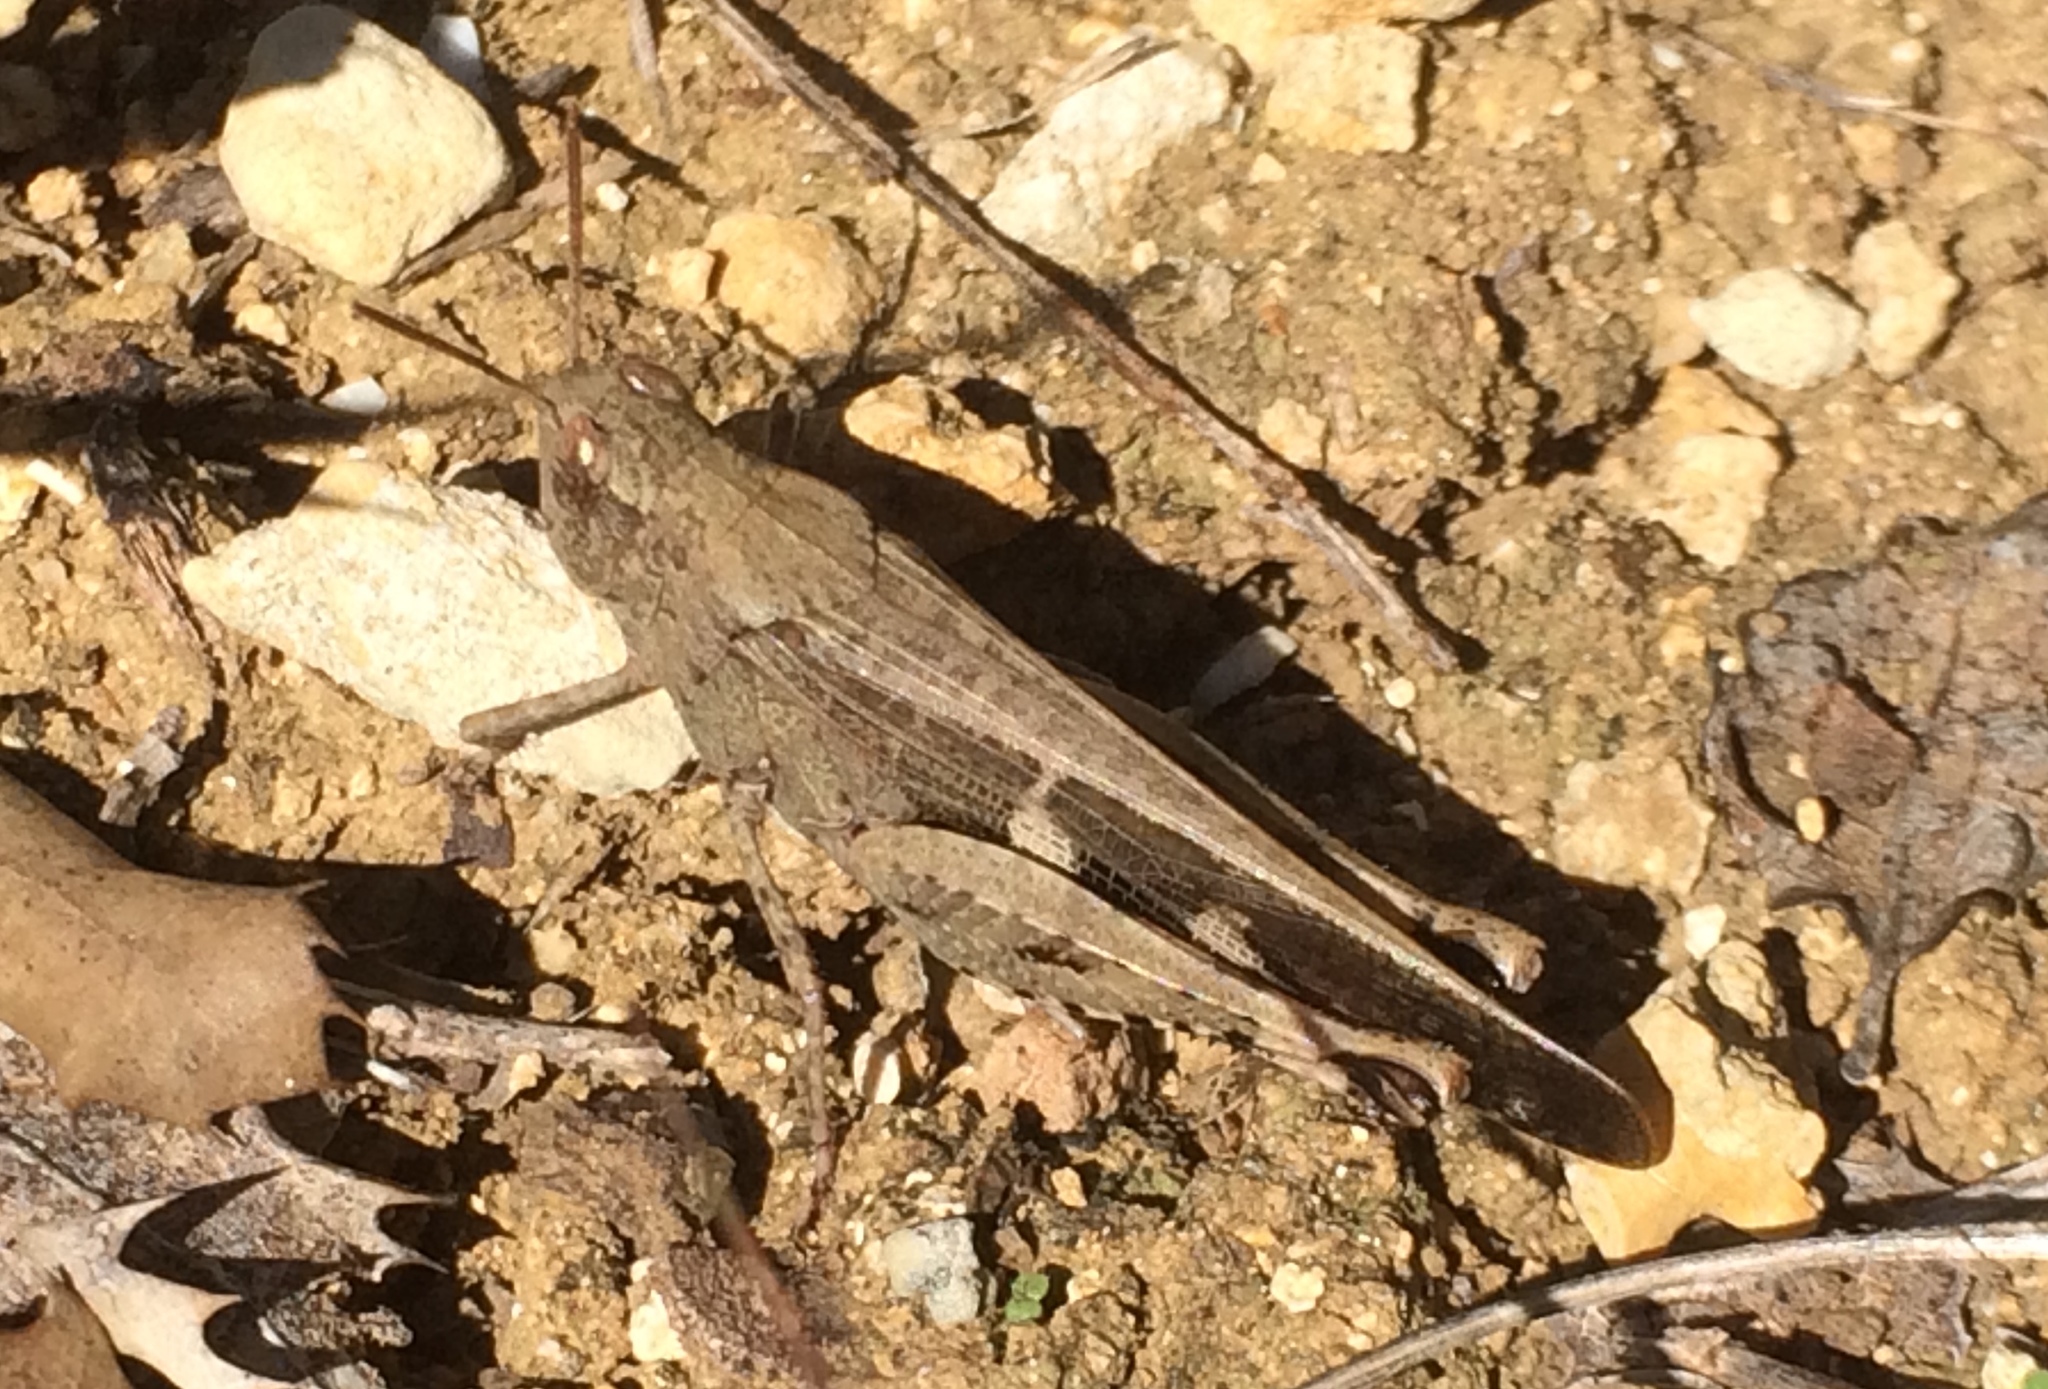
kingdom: Animalia
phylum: Arthropoda
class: Insecta
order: Orthoptera
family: Acrididae
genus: Aiolopus
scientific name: Aiolopus strepens
